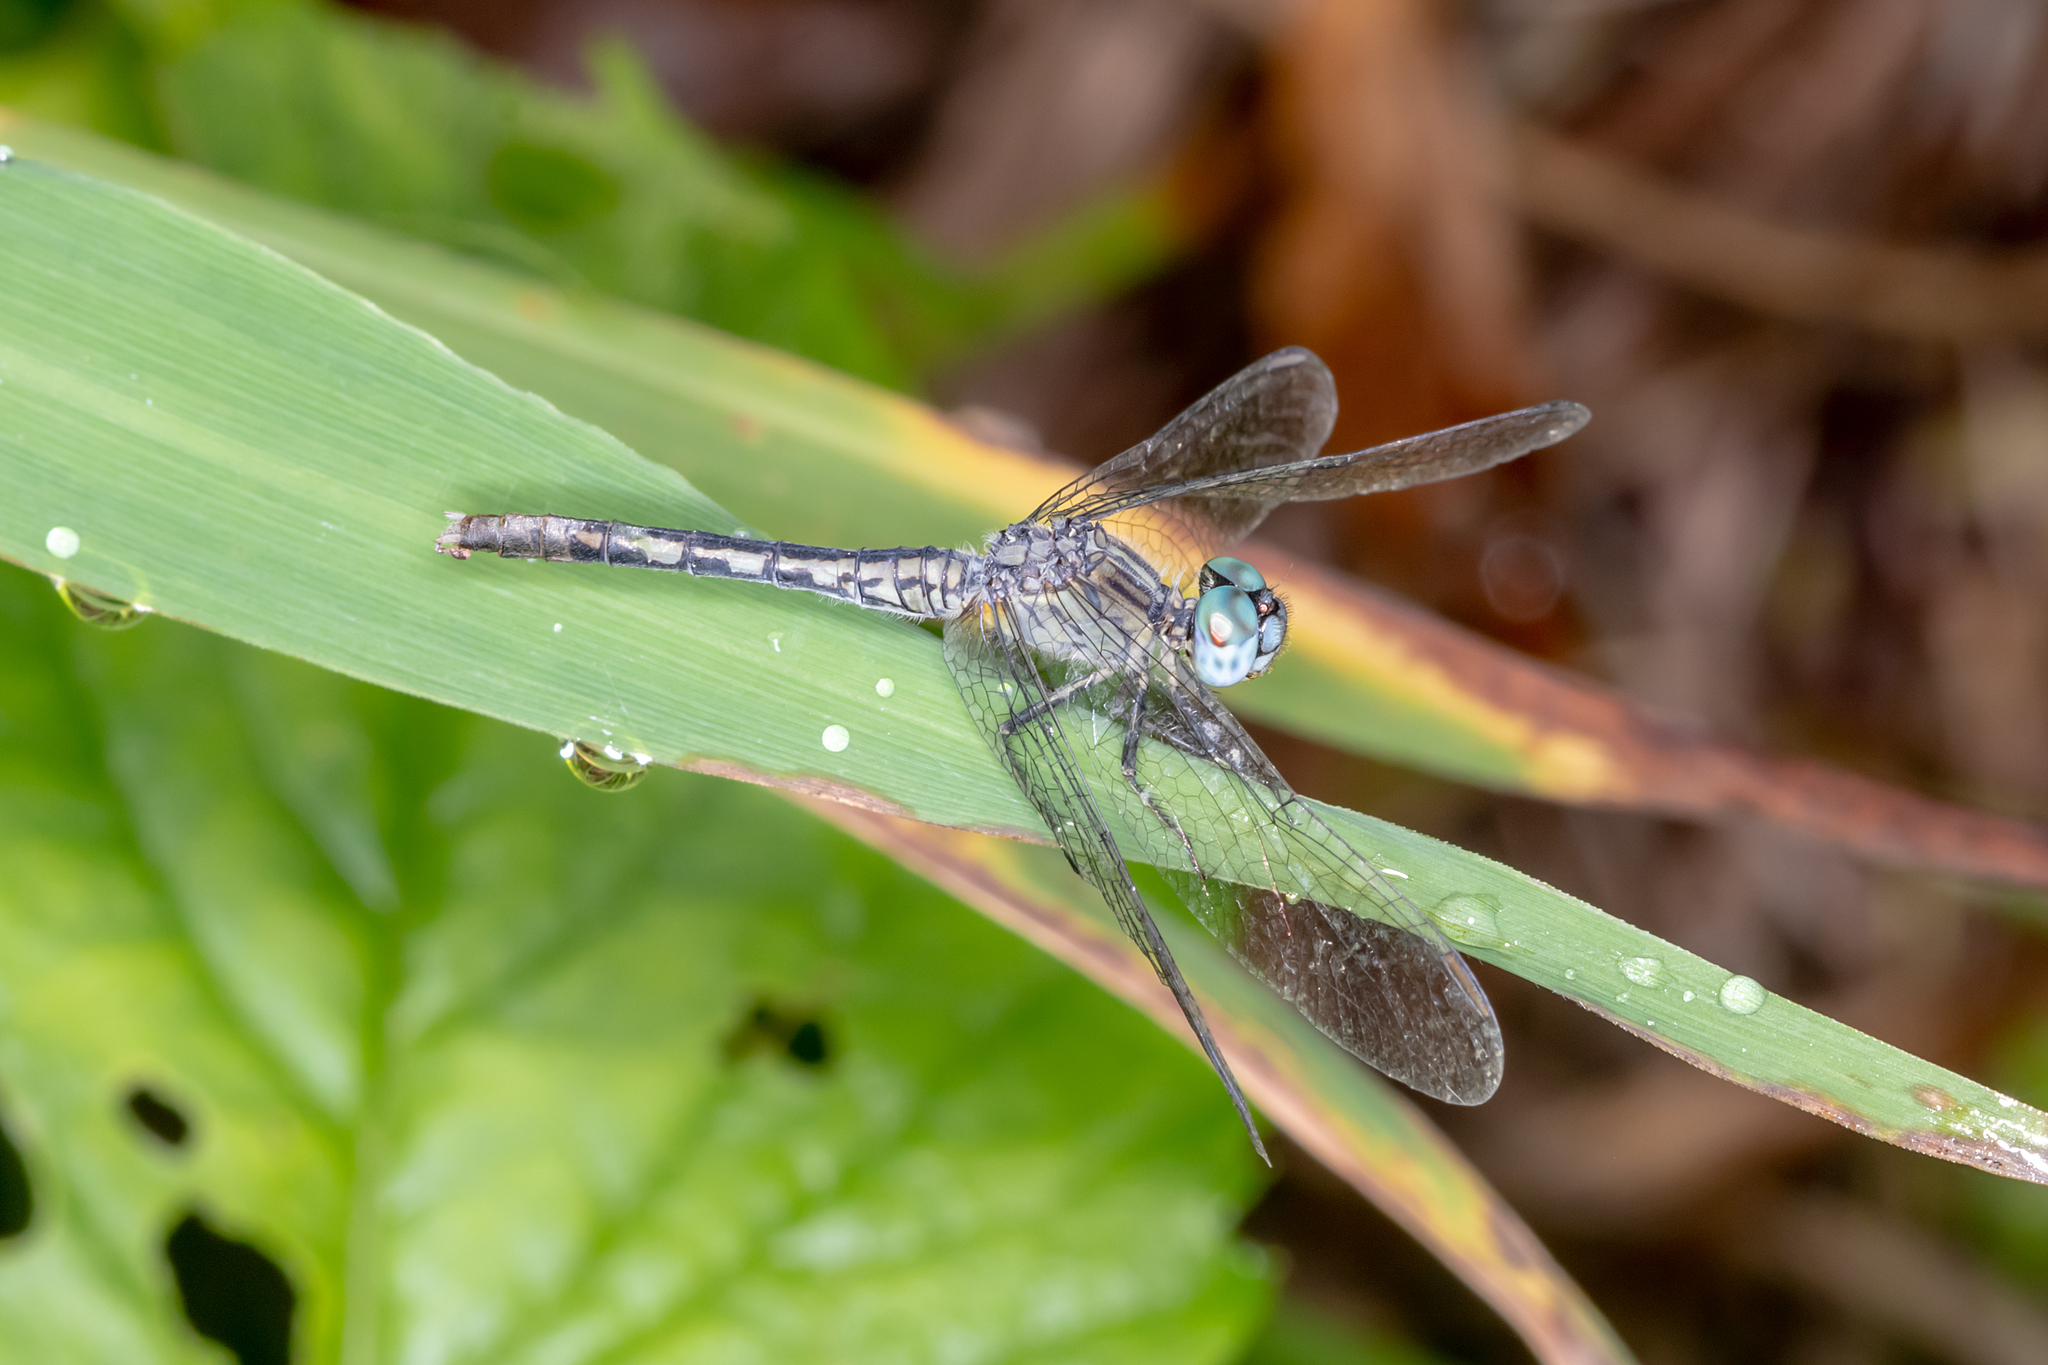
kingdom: Animalia
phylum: Arthropoda
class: Insecta
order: Odonata
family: Libellulidae
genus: Diplacodes
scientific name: Diplacodes trivialis
